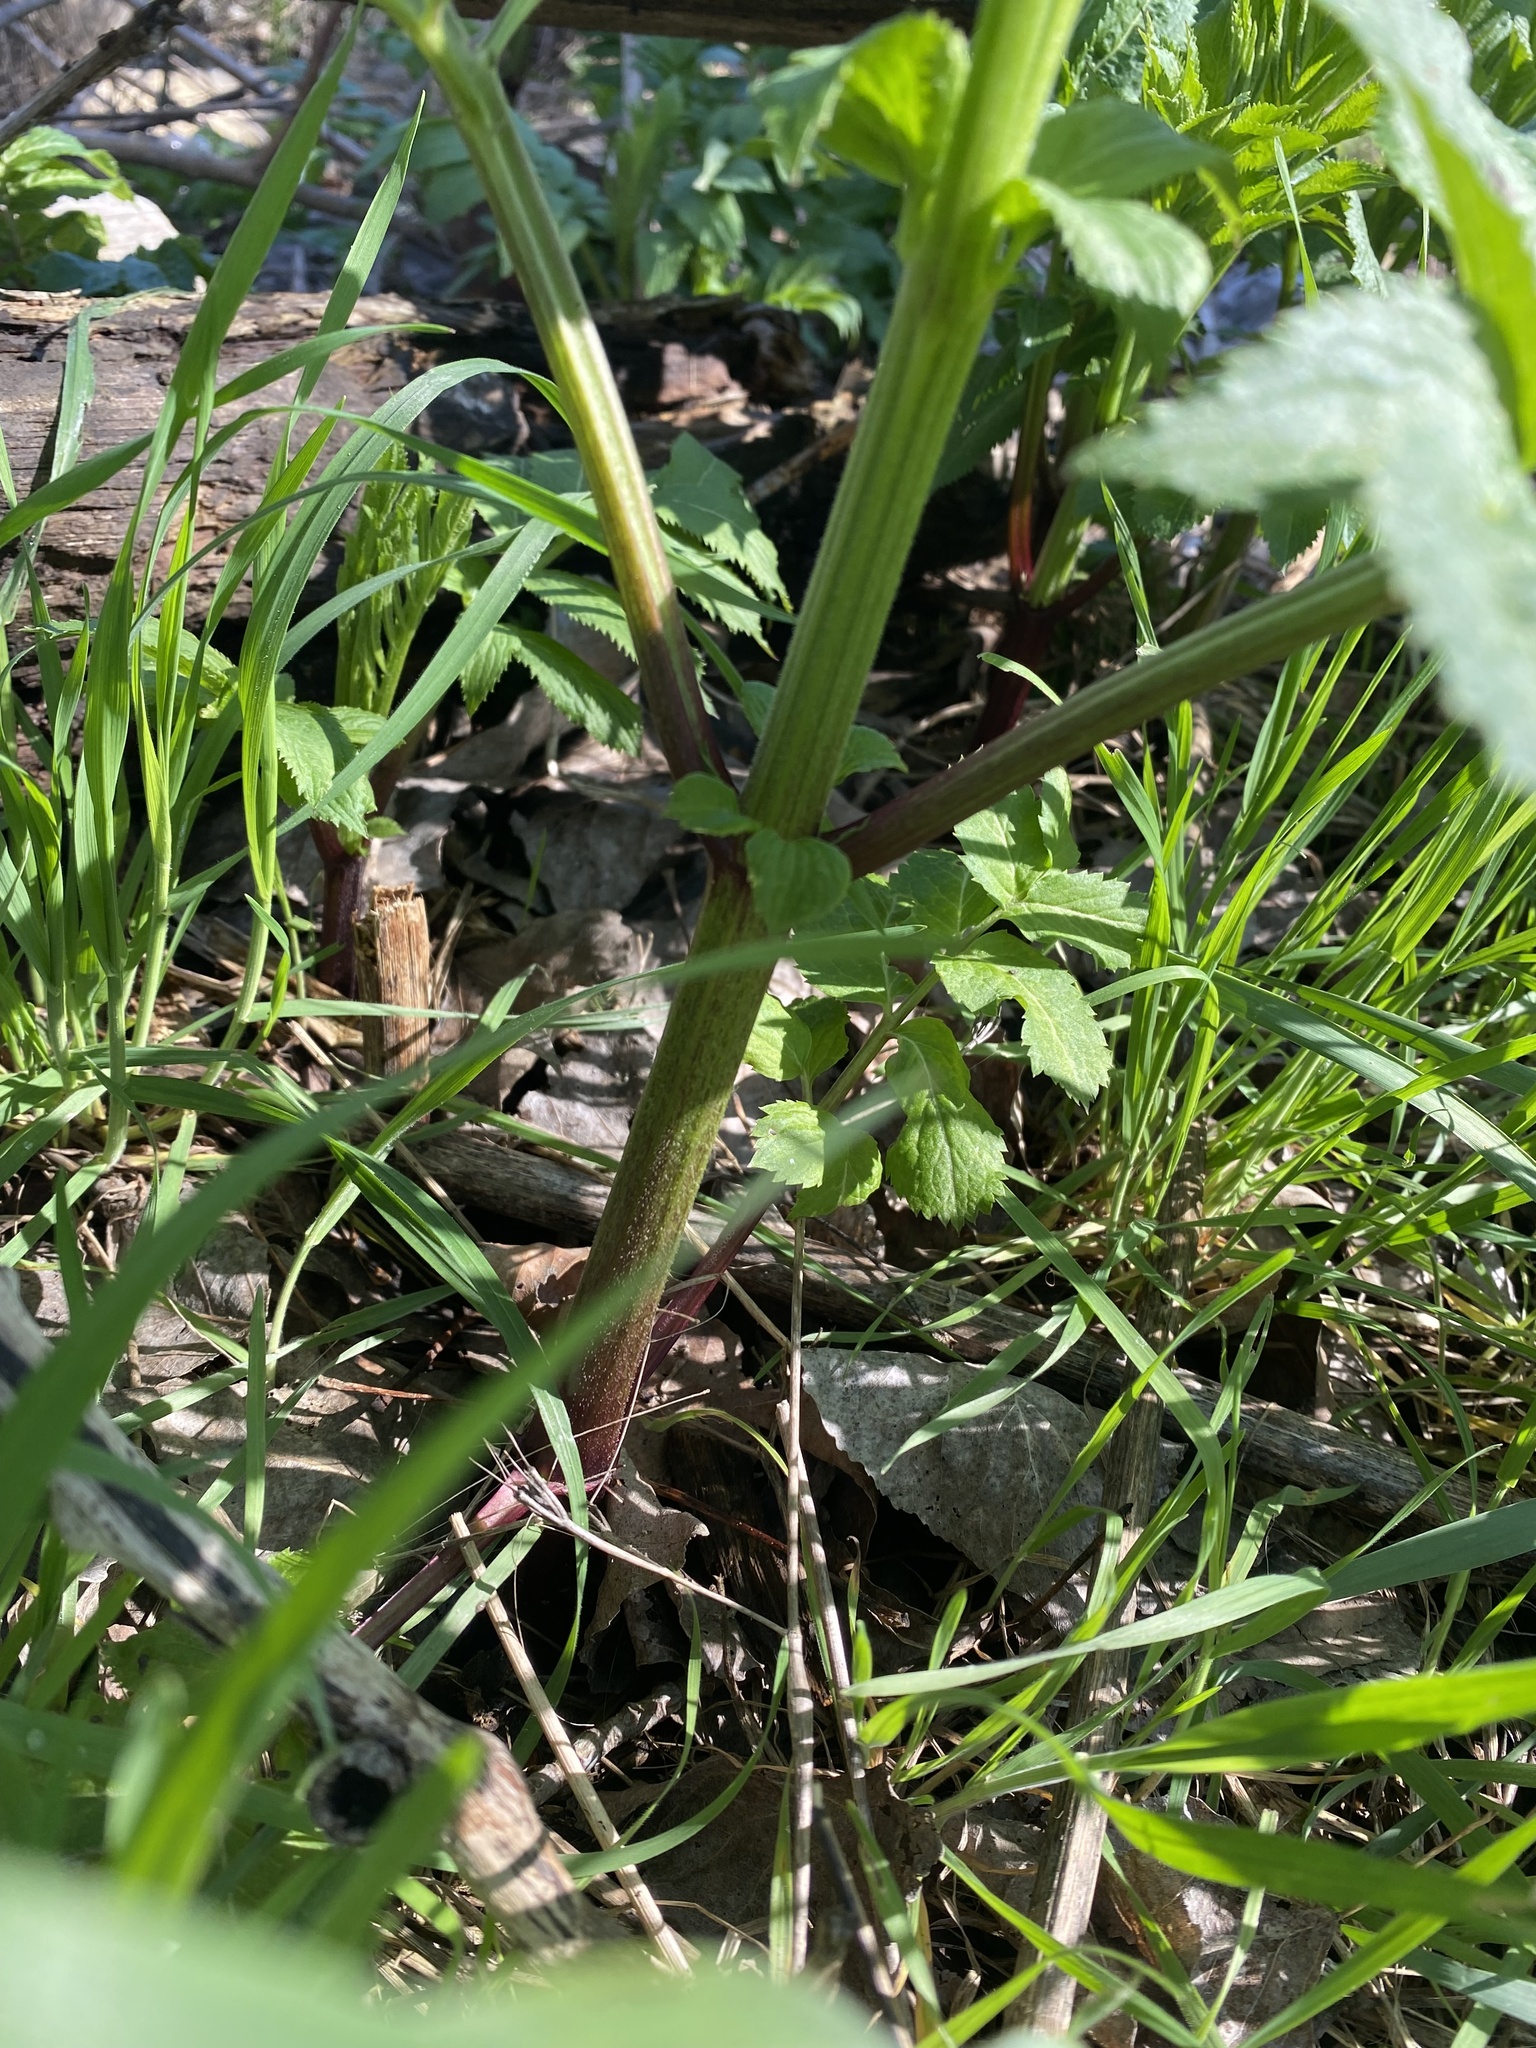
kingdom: Plantae
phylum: Tracheophyta
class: Magnoliopsida
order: Dipsacales
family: Viburnaceae
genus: Sambucus
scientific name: Sambucus ebulus
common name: Dwarf elder
